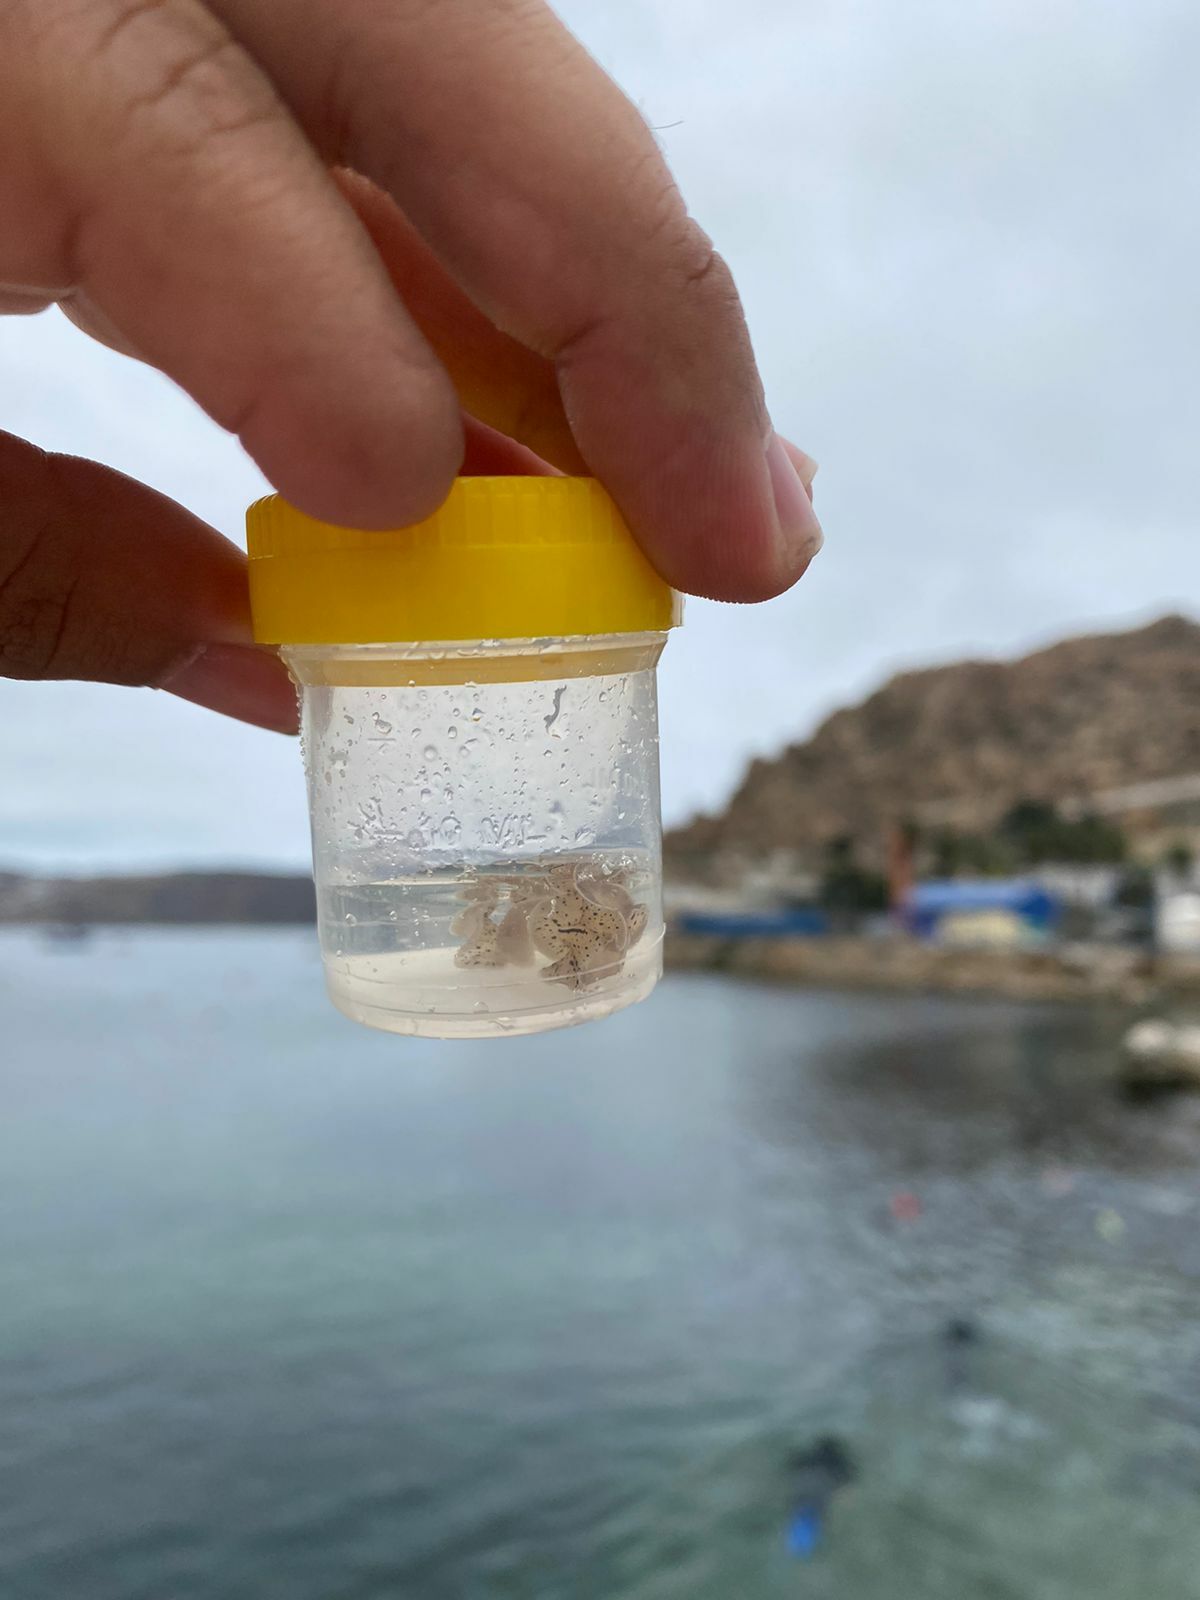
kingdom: Animalia
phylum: Platyhelminthes
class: Turbellaria
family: Pseudocerotidae
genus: Phrikoceros
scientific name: Phrikoceros inca
